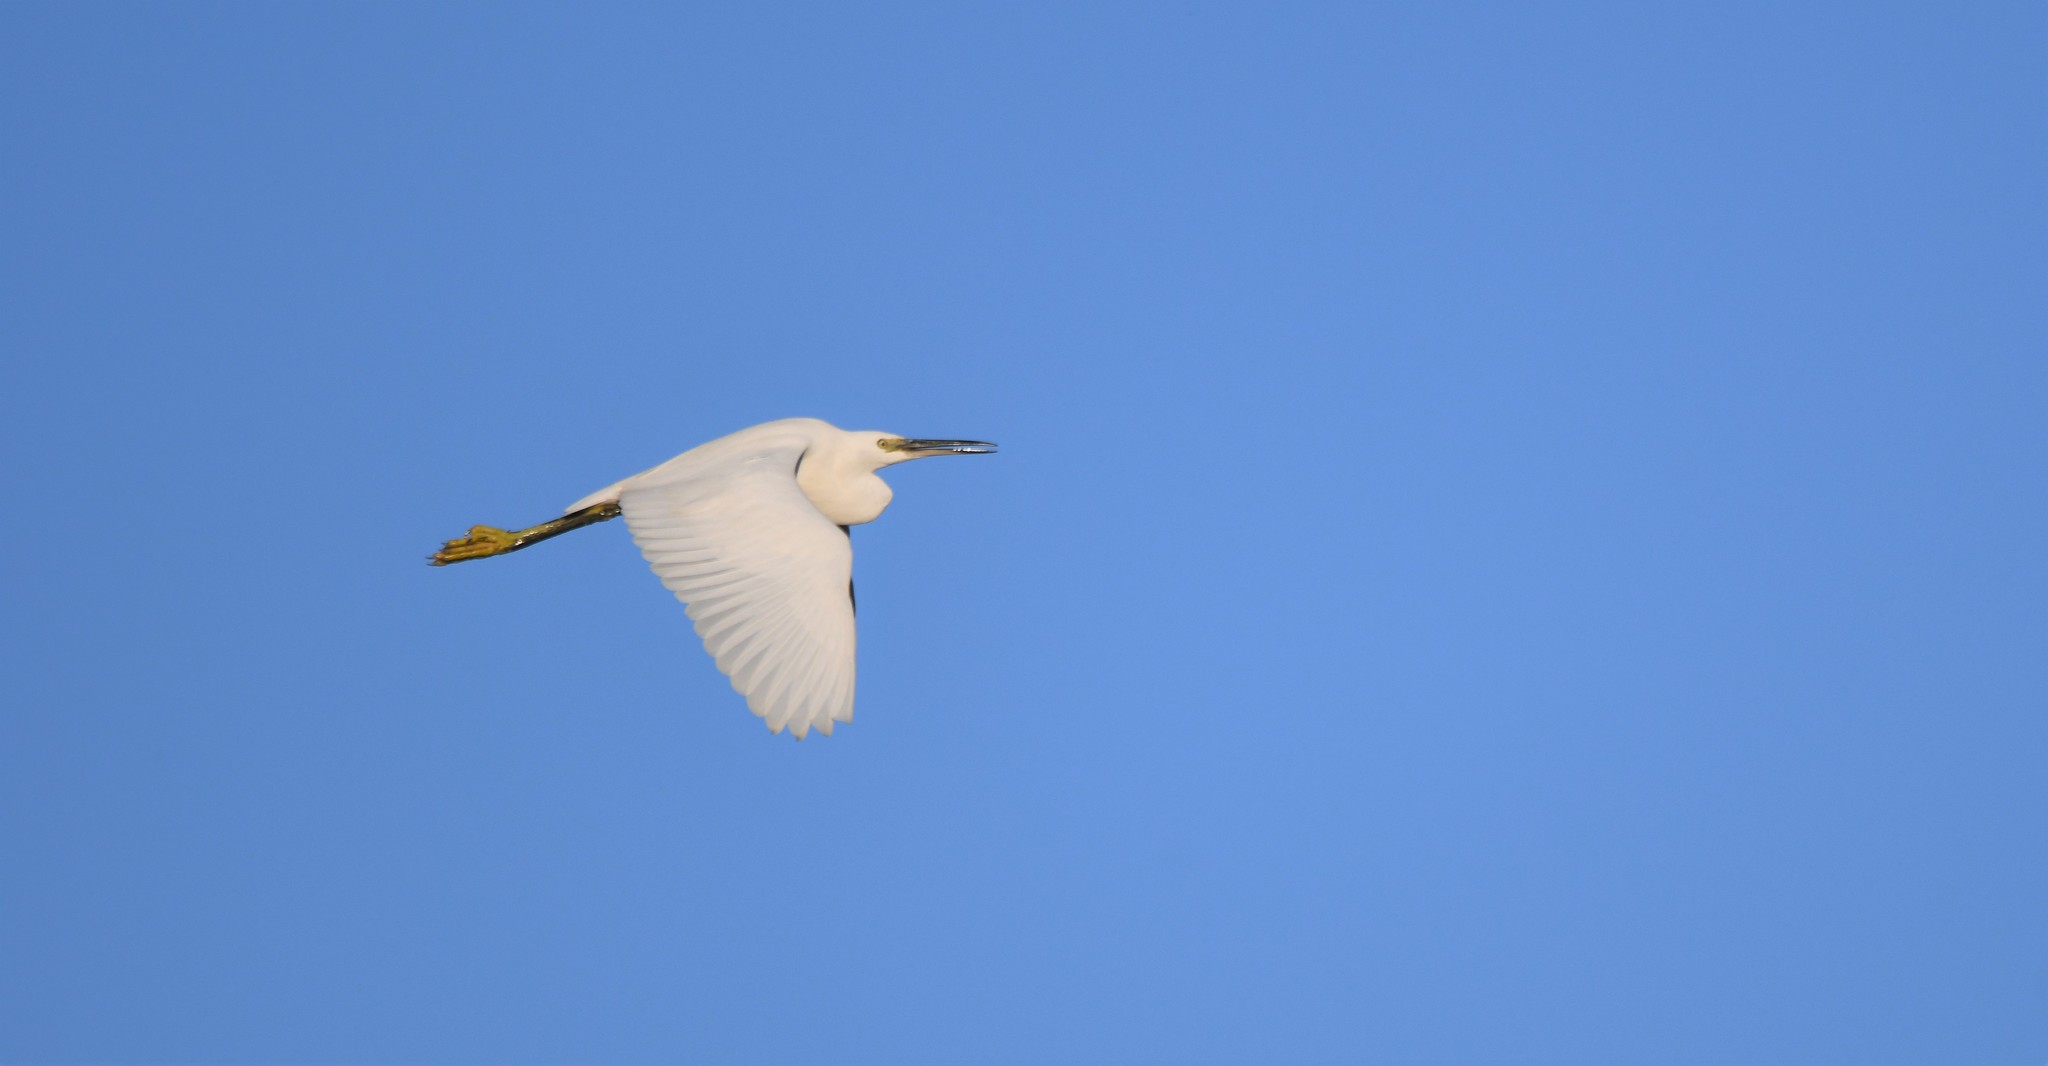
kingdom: Animalia
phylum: Chordata
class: Aves
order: Pelecaniformes
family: Ardeidae
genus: Egretta
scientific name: Egretta garzetta
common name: Little egret
